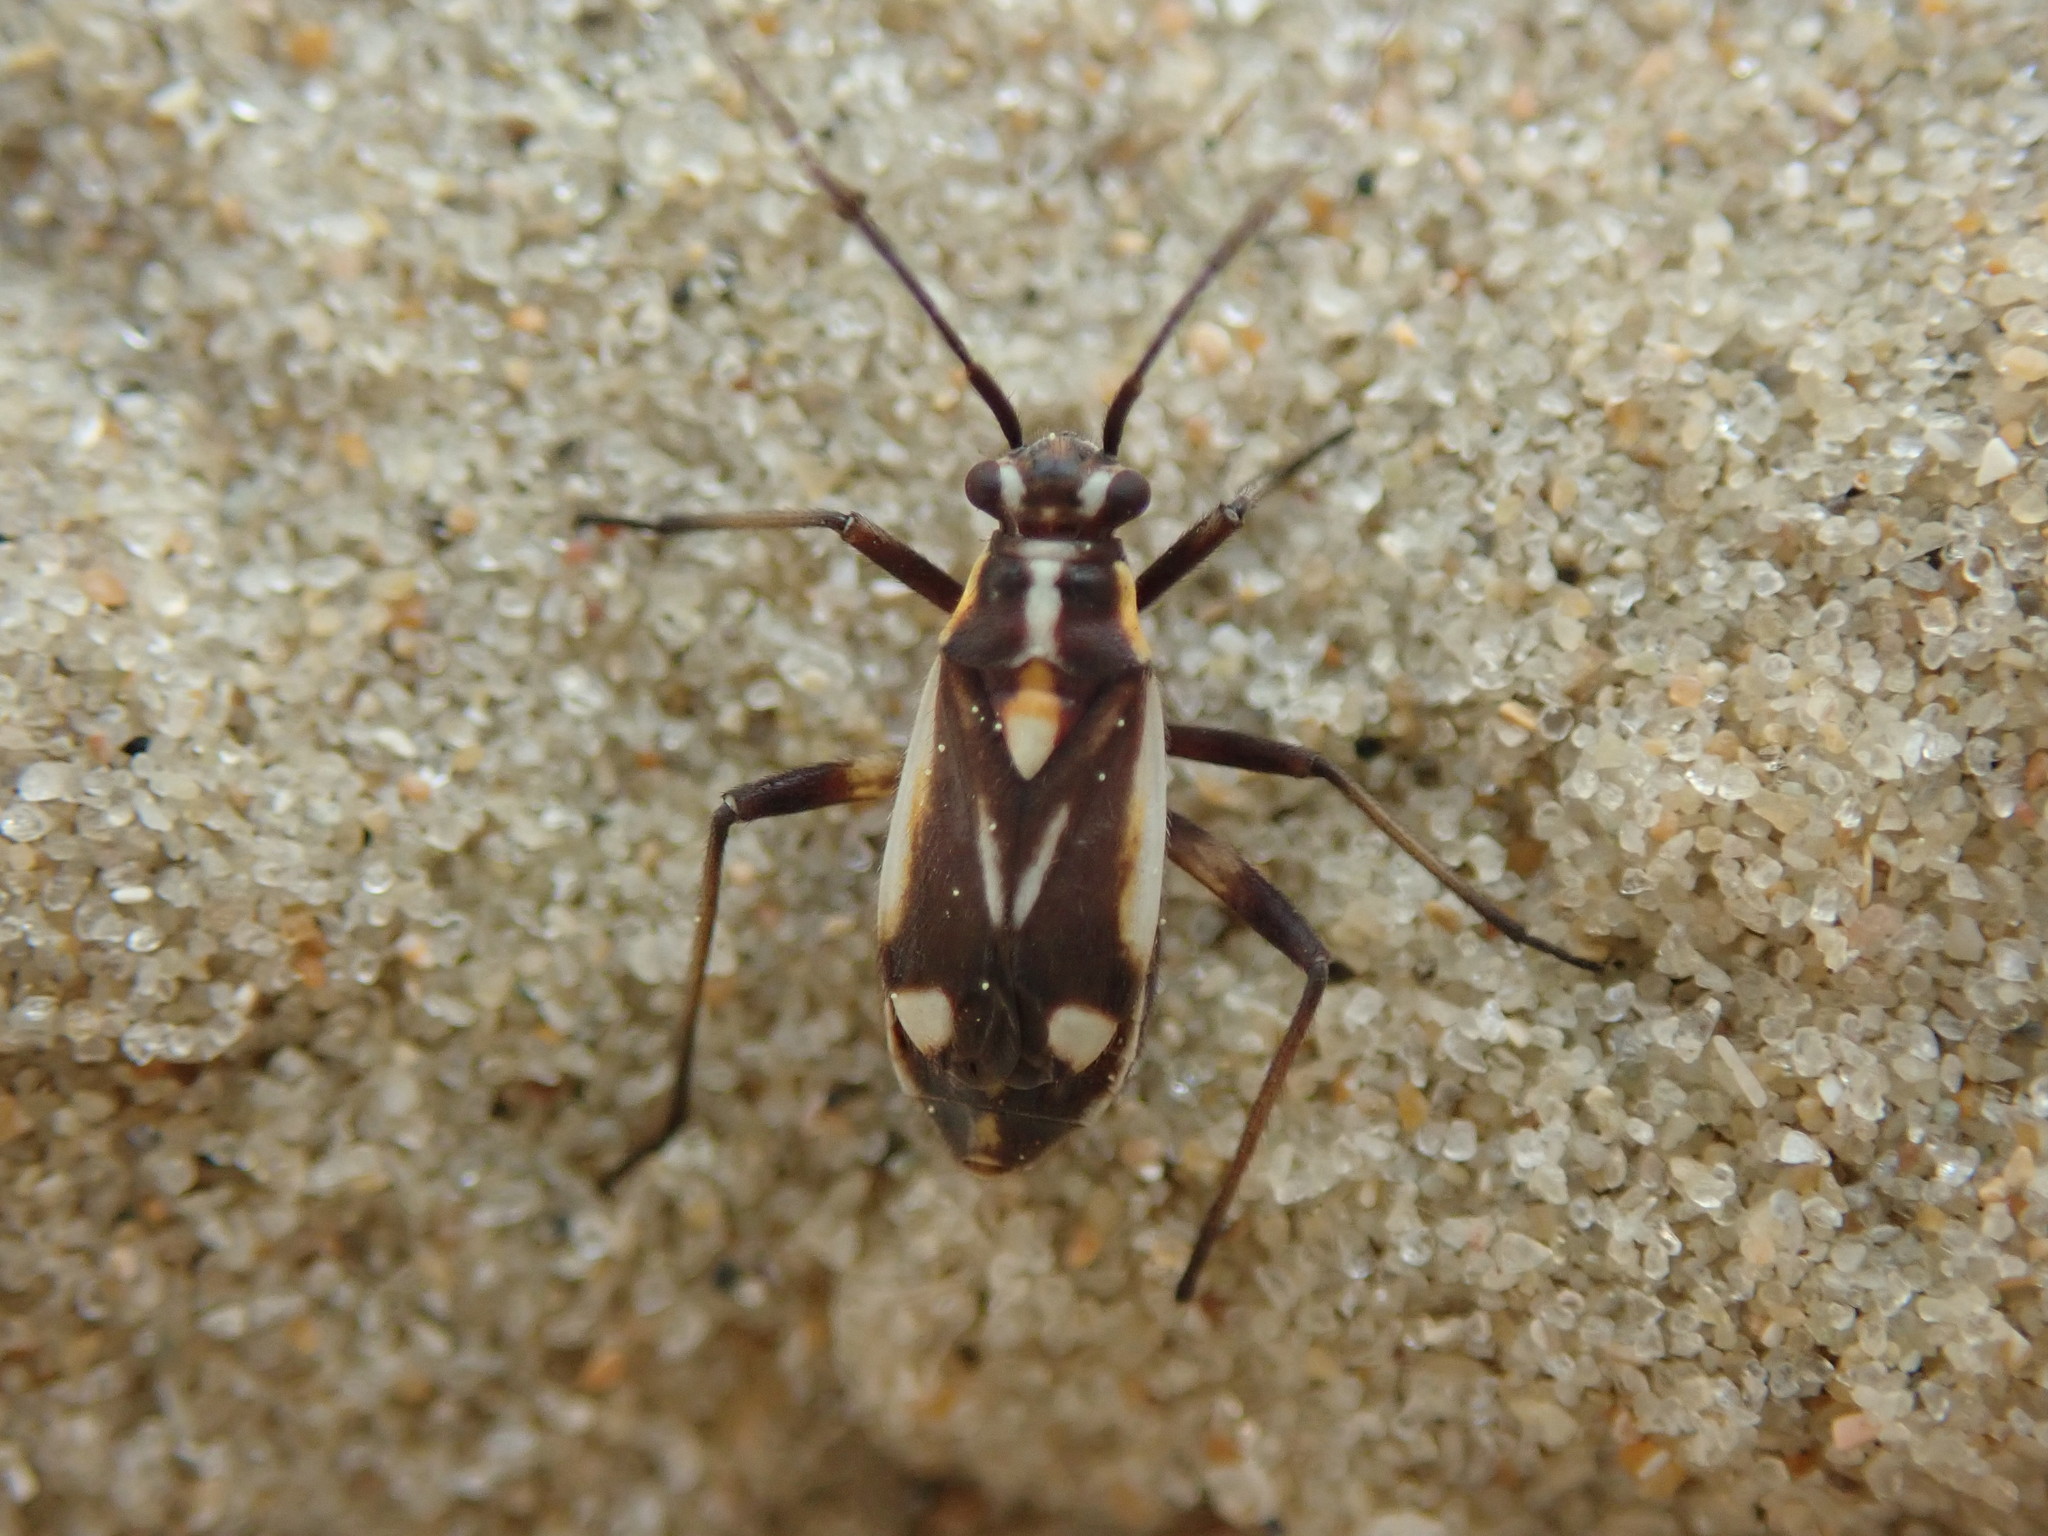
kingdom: Animalia
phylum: Arthropoda
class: Insecta
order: Hemiptera
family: Miridae
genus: Capsodes
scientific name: Capsodes sulcatus
